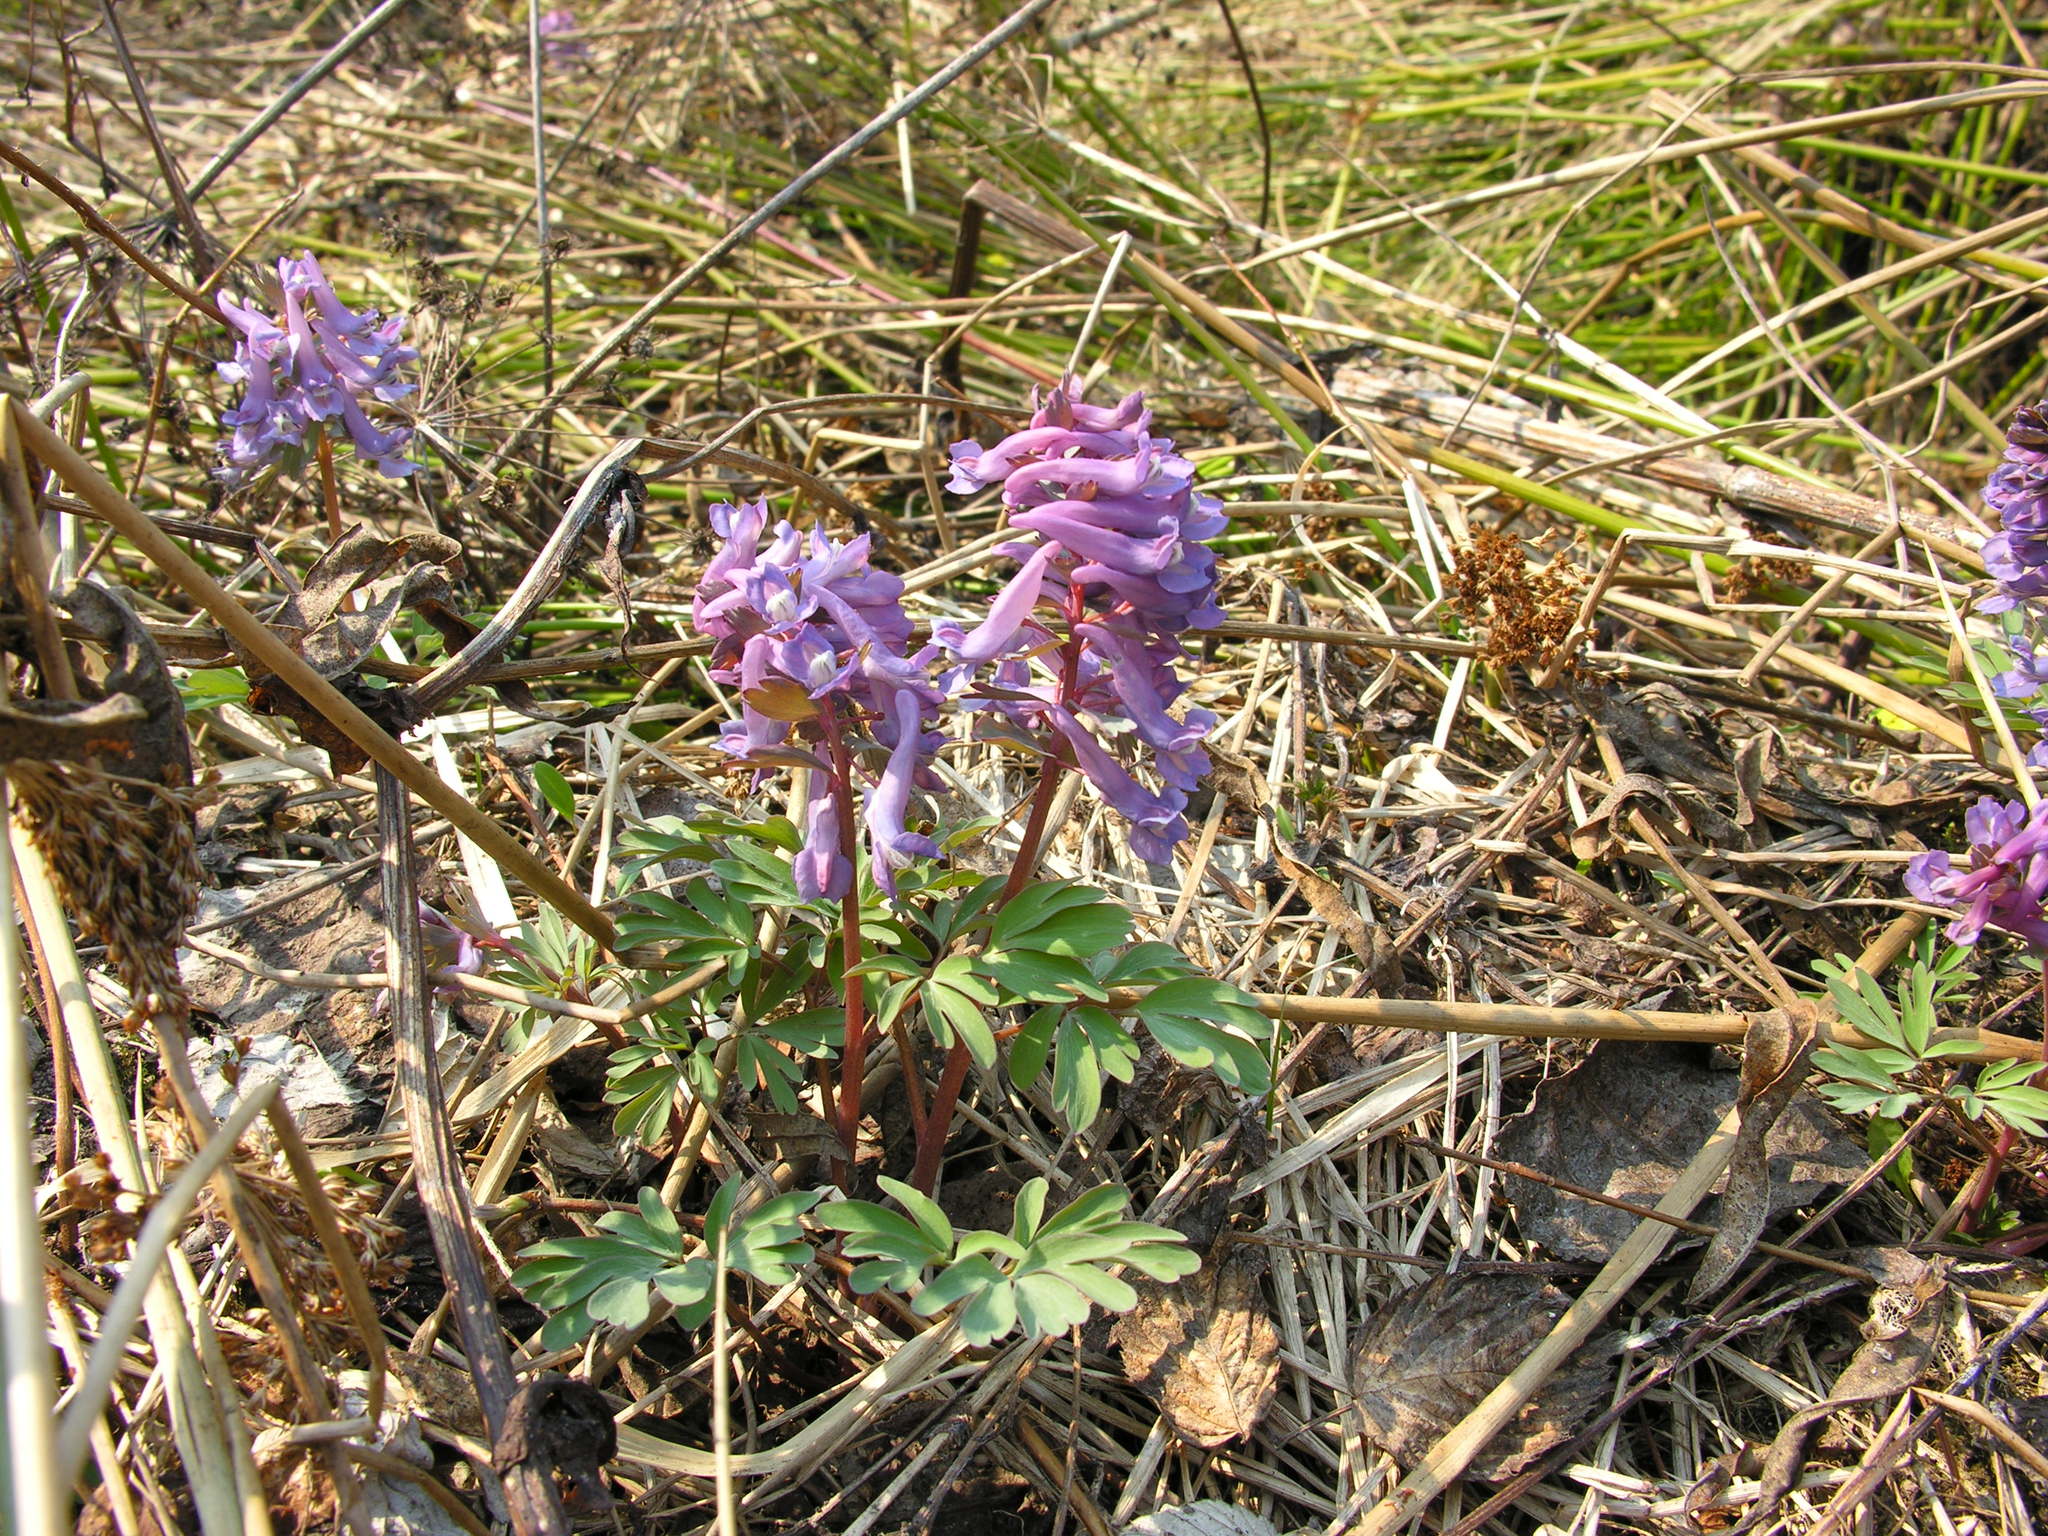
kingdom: Plantae
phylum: Tracheophyta
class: Magnoliopsida
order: Ranunculales
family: Papaveraceae
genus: Corydalis
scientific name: Corydalis solida
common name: Bird-in-a-bush
